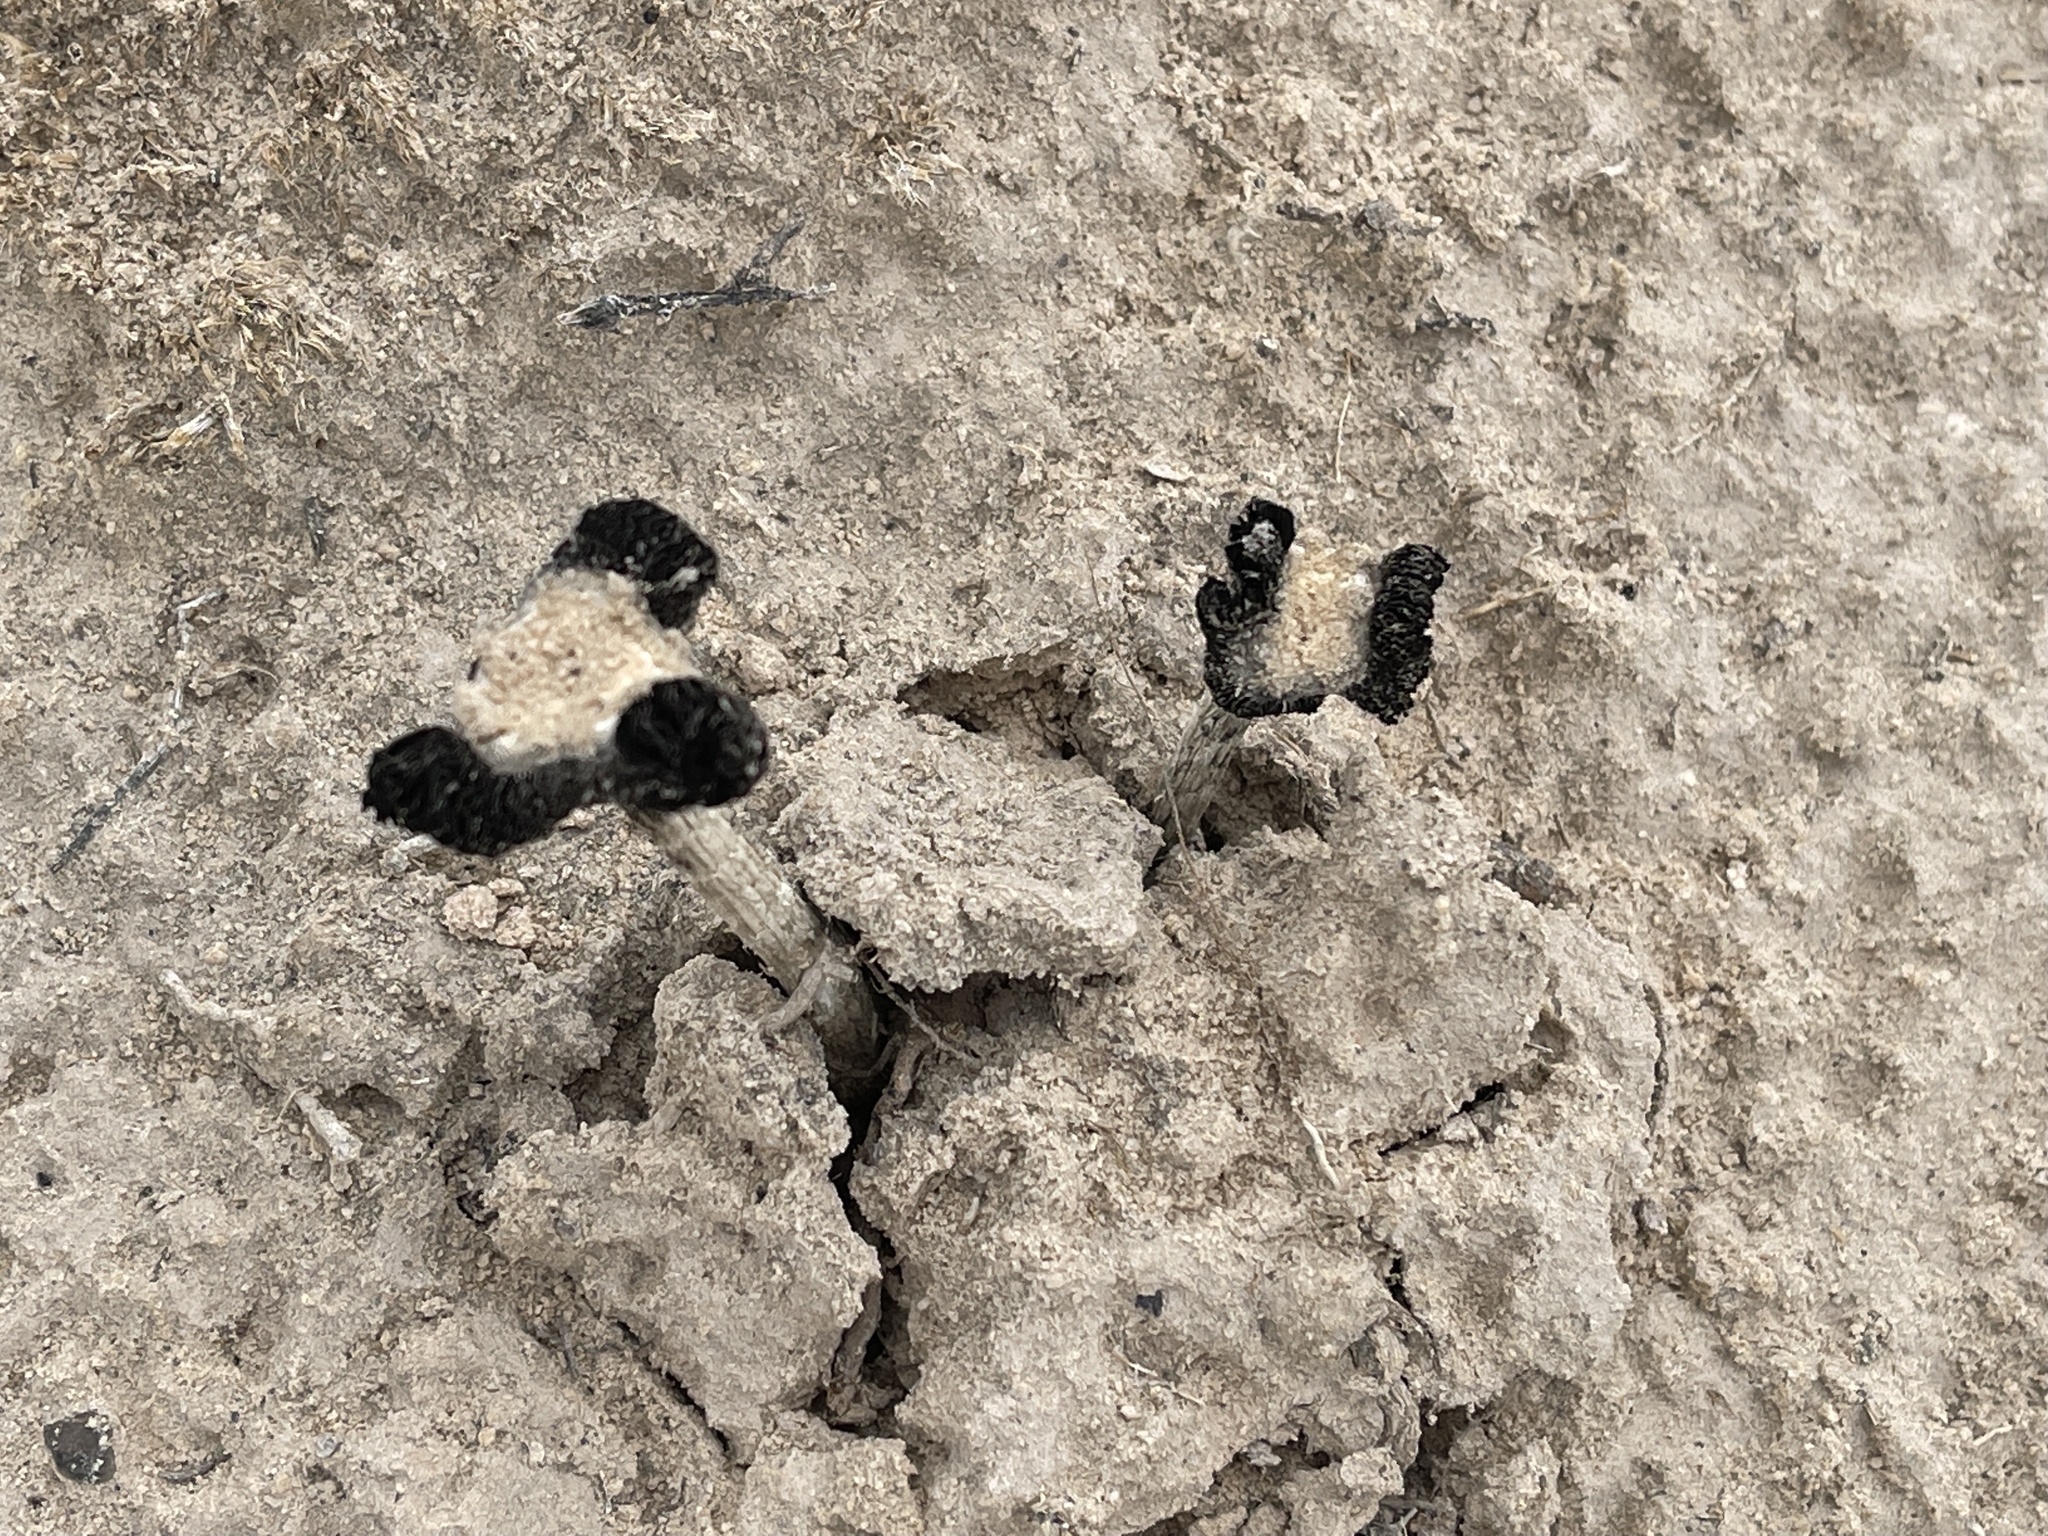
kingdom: Fungi
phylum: Basidiomycota
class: Agaricomycetes
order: Agaricales
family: Agaricaceae
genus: Montagnea
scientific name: Montagnea arenaria
